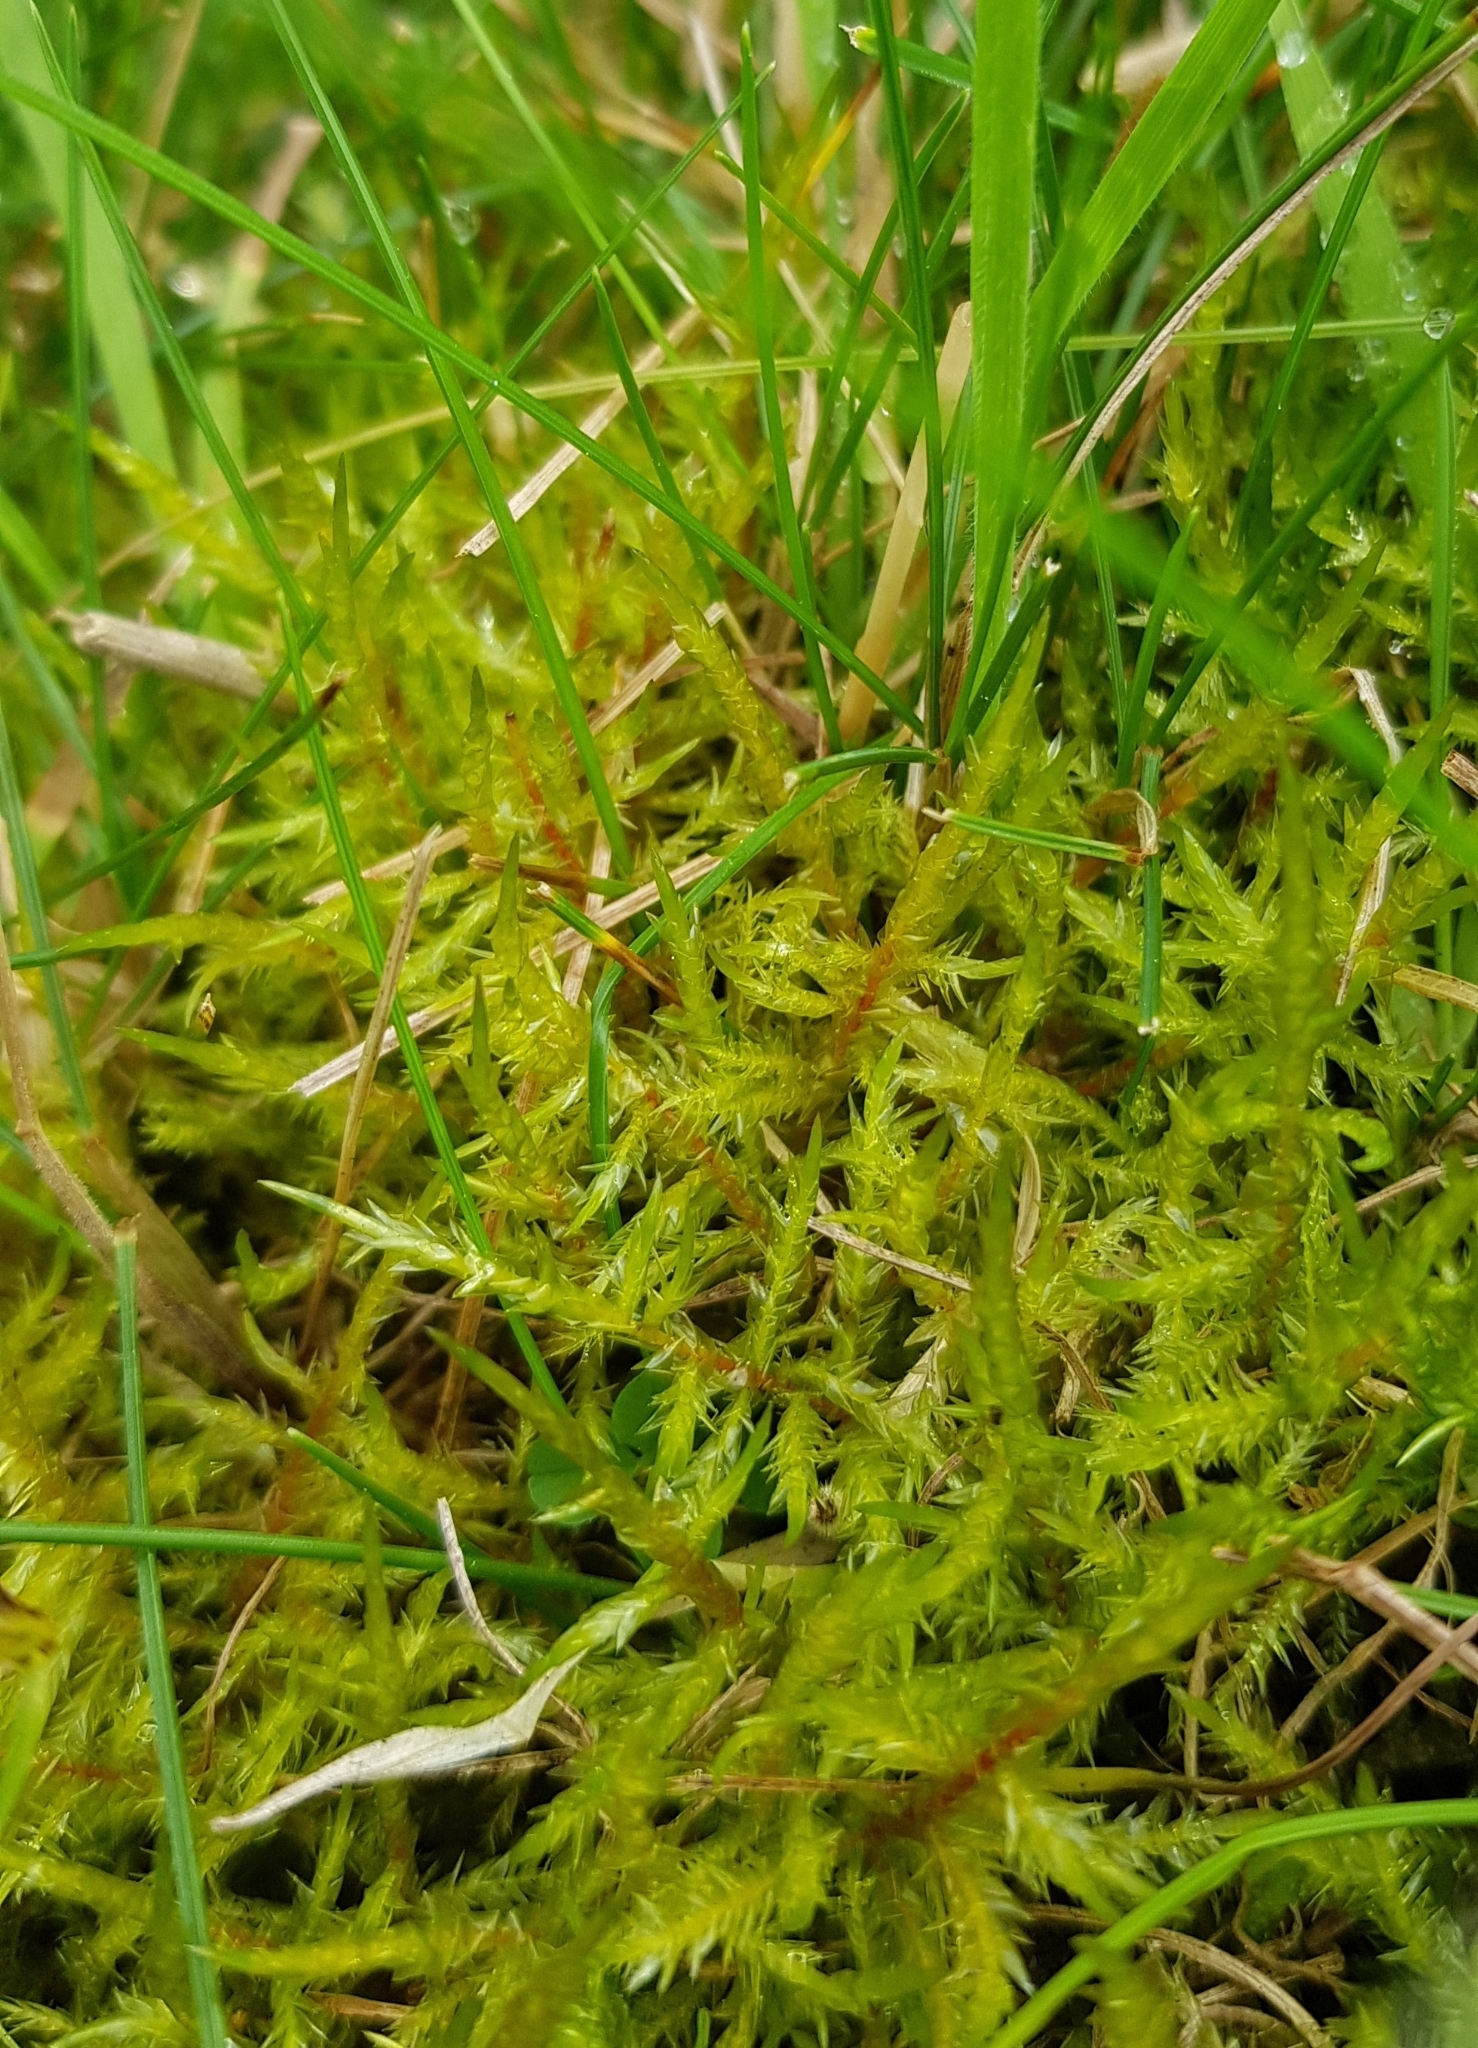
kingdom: Plantae
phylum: Bryophyta
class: Bryopsida
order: Hypnales
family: Pylaisiaceae
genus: Calliergonella
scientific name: Calliergonella cuspidata
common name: Common large wetland moss
